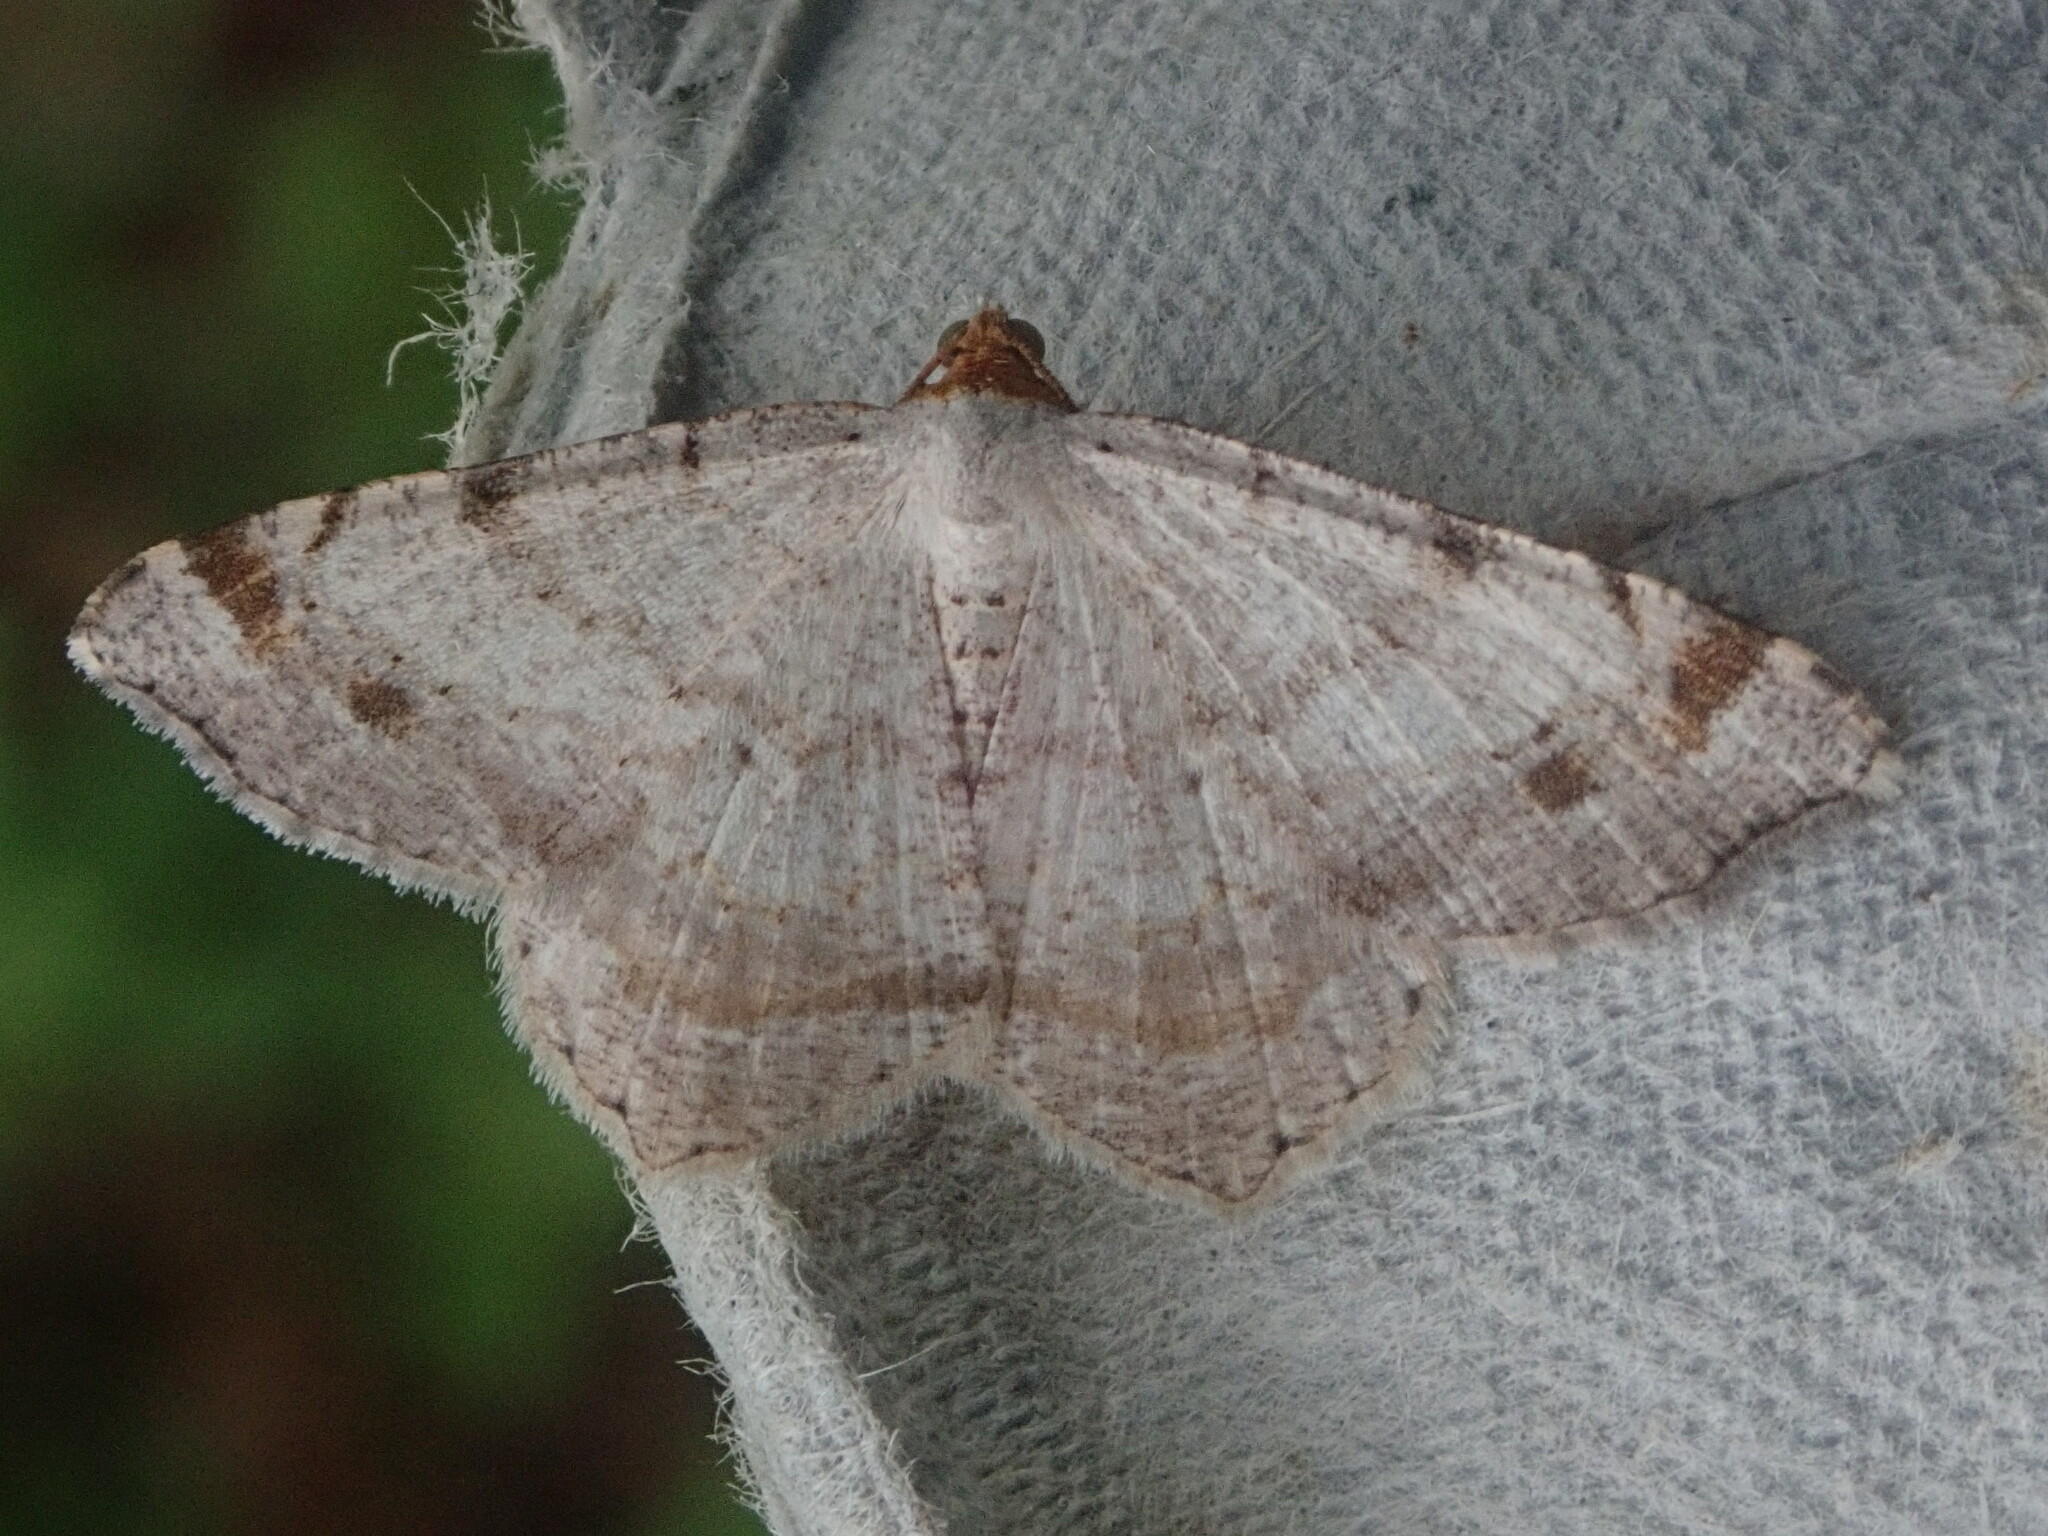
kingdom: Animalia
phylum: Arthropoda
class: Insecta
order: Lepidoptera
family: Geometridae
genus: Macaria
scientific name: Macaria bisignata
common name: Red-headed inchworm
